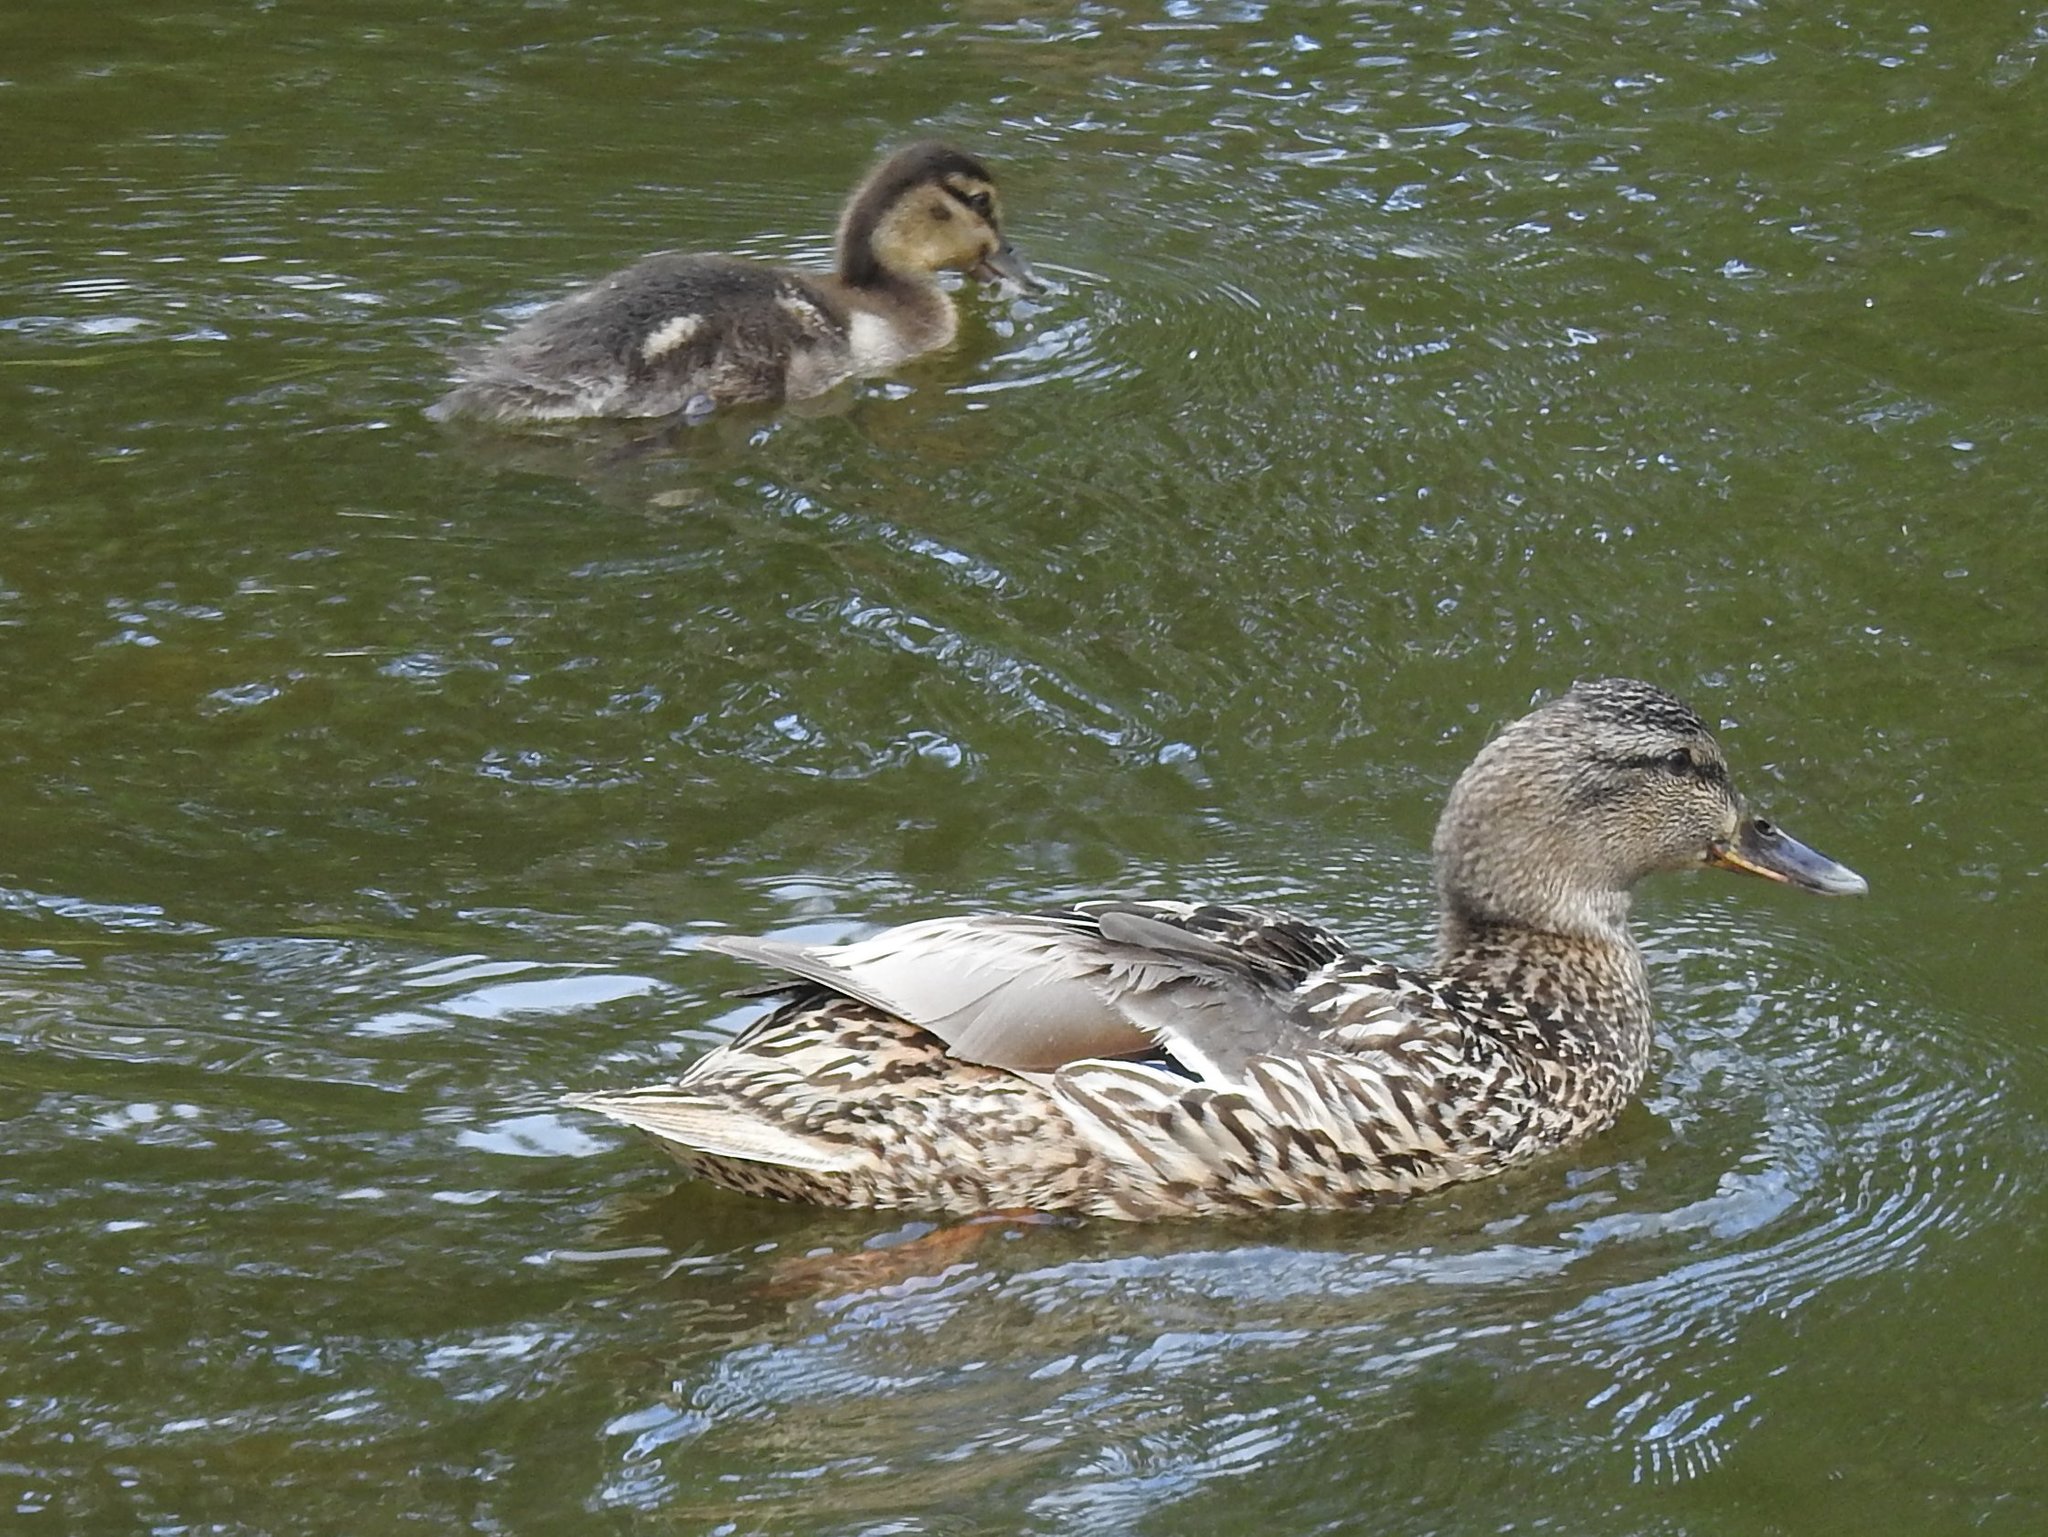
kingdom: Animalia
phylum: Chordata
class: Aves
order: Anseriformes
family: Anatidae
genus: Anas
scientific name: Anas platyrhynchos
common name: Mallard
